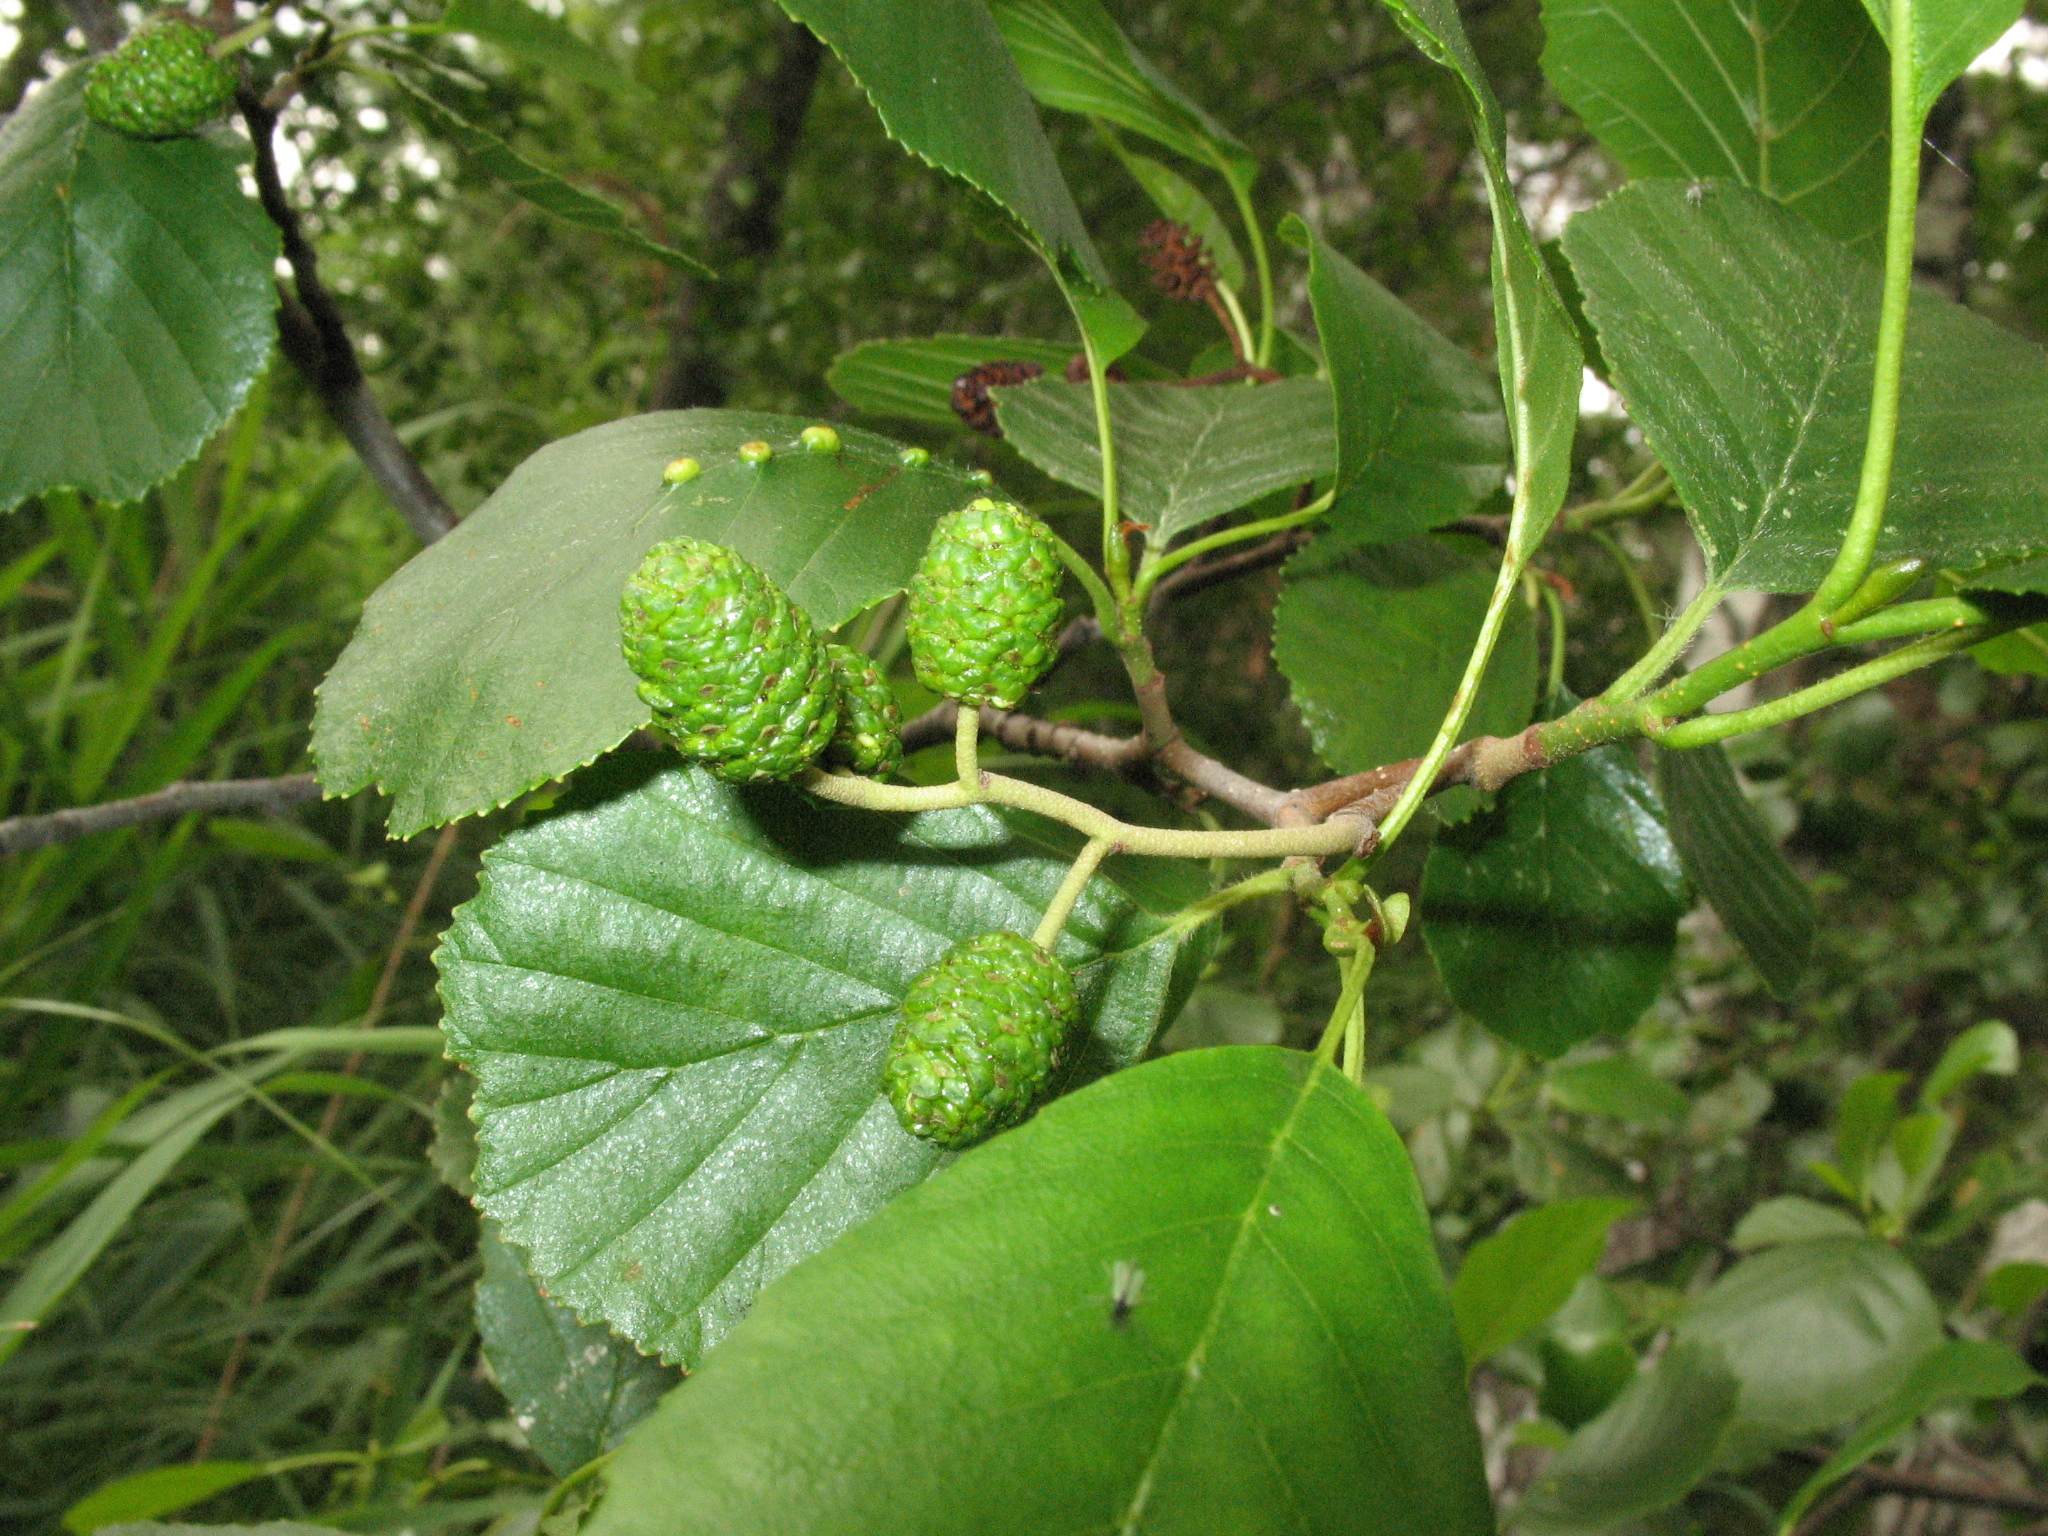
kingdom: Plantae
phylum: Tracheophyta
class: Magnoliopsida
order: Fagales
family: Betulaceae
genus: Alnus
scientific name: Alnus glutinosa
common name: Black alder
